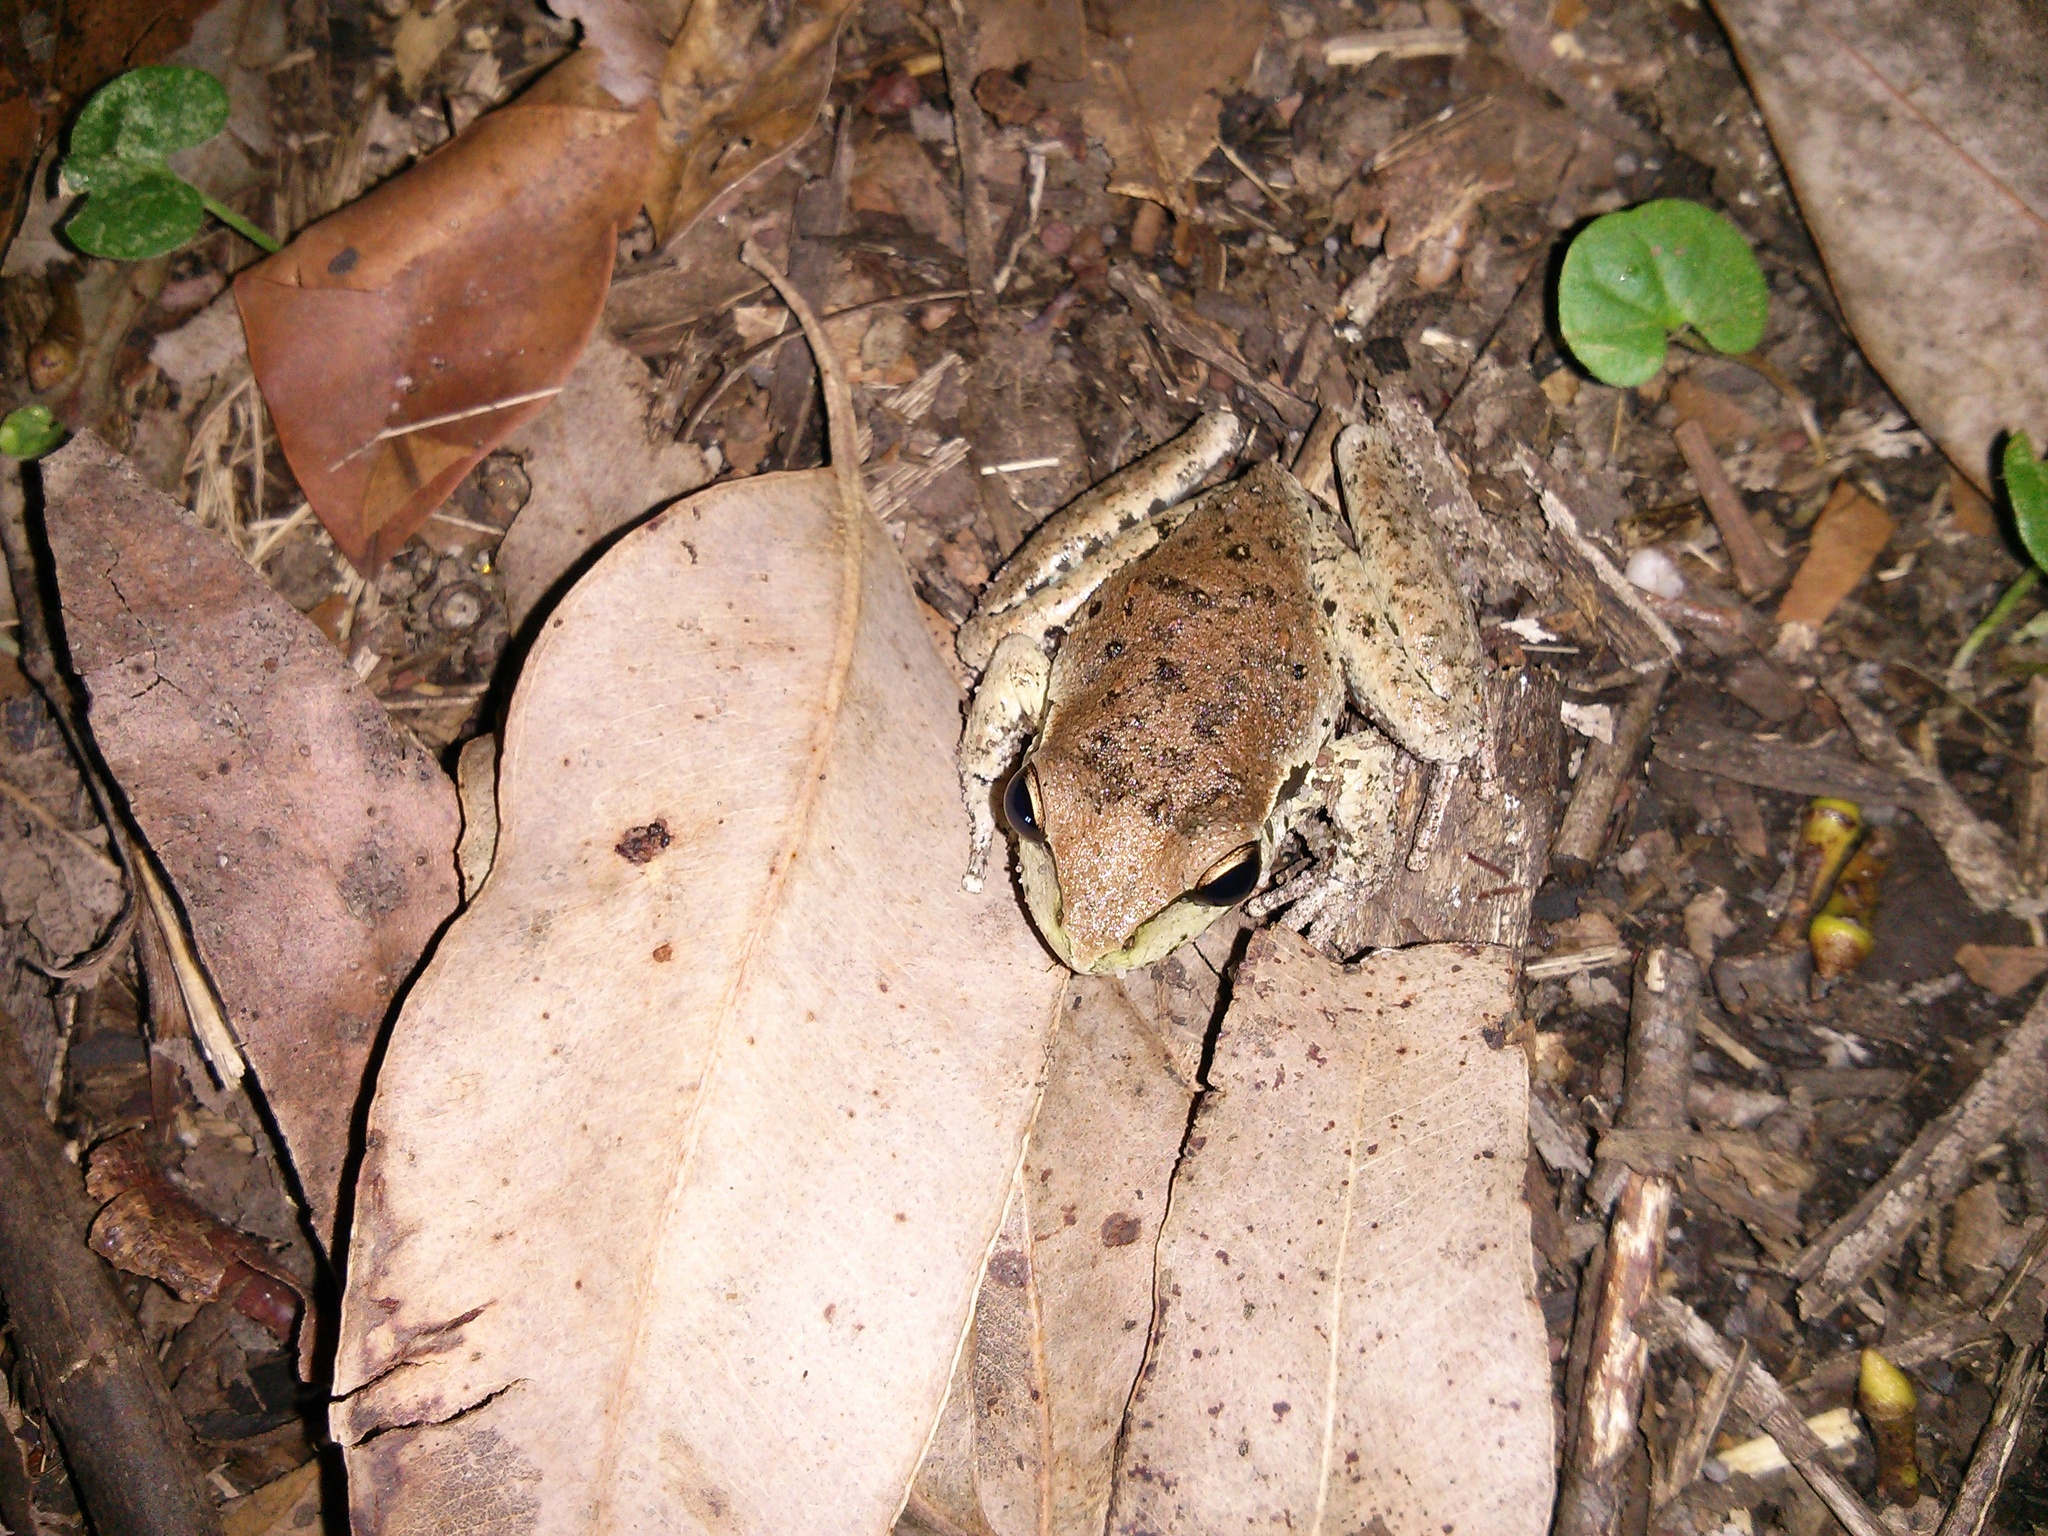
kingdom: Animalia
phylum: Chordata
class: Amphibia
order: Anura
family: Pelodryadidae
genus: Ranoidea
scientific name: Ranoidea lesueurii
